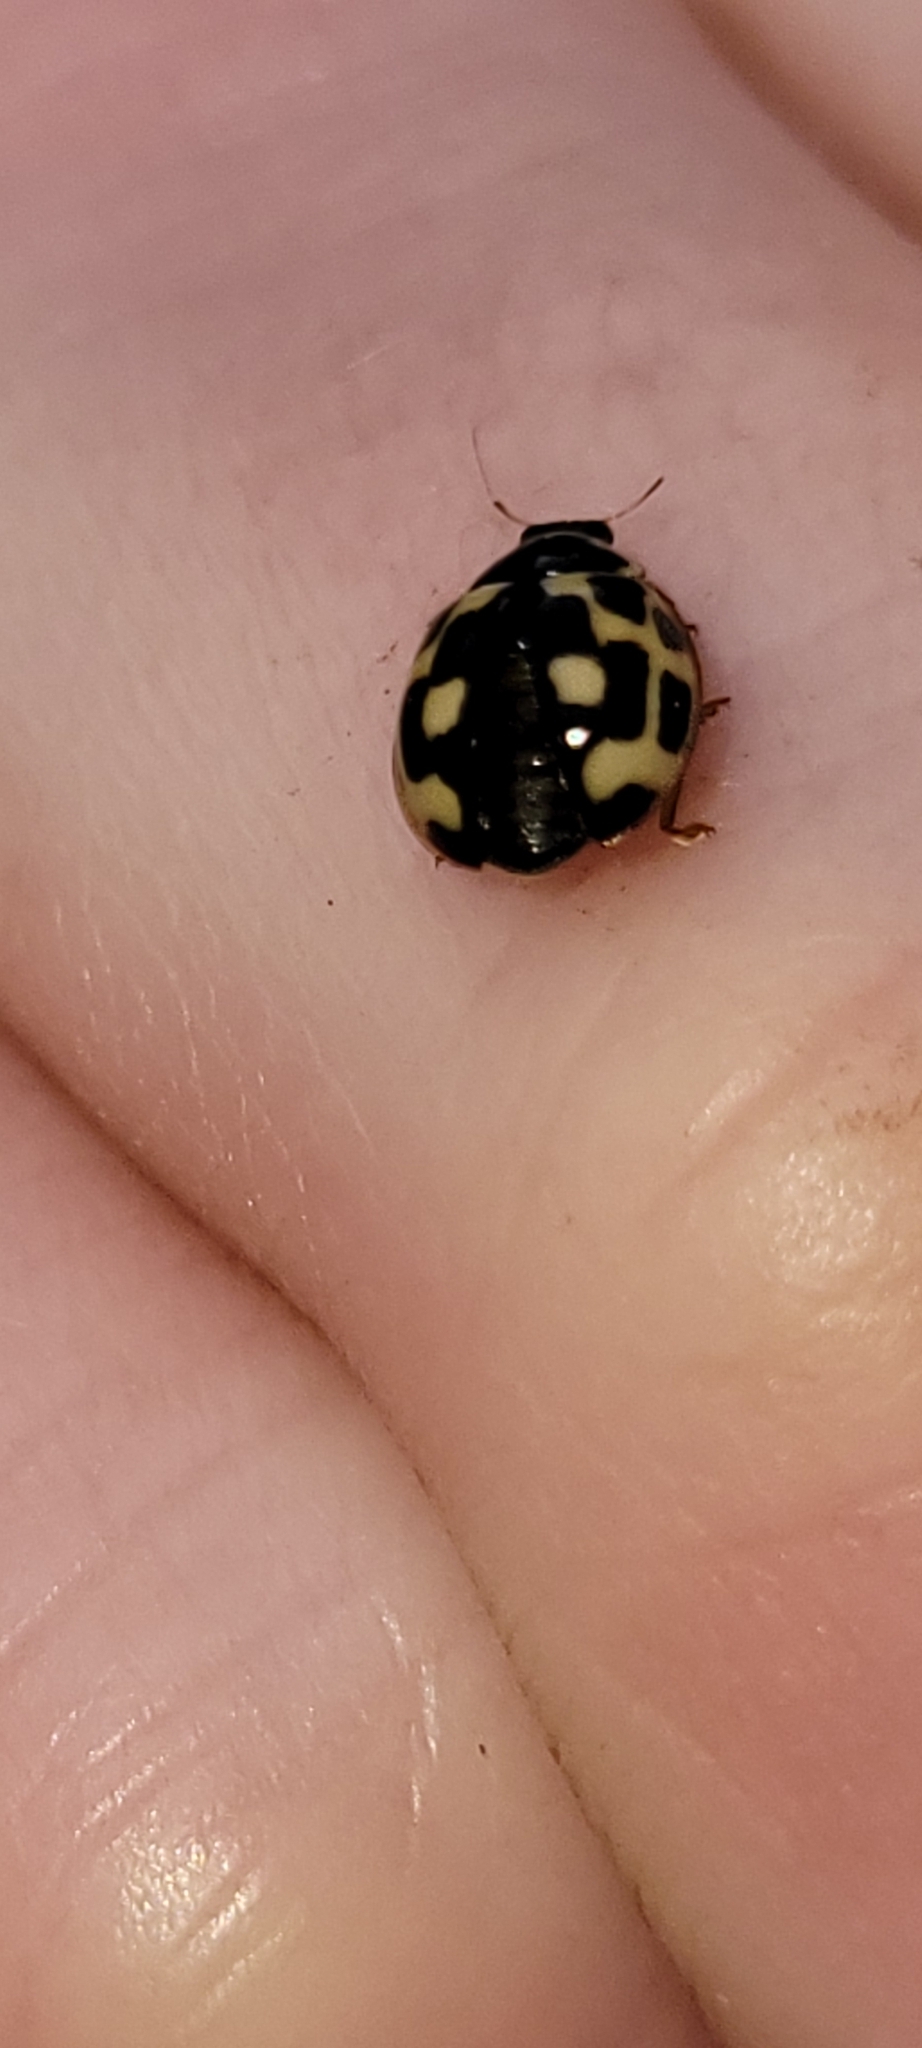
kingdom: Animalia
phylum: Arthropoda
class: Insecta
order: Coleoptera
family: Coccinellidae
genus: Propylaea
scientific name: Propylaea quatuordecimpunctata
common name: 14-spotted ladybird beetle
